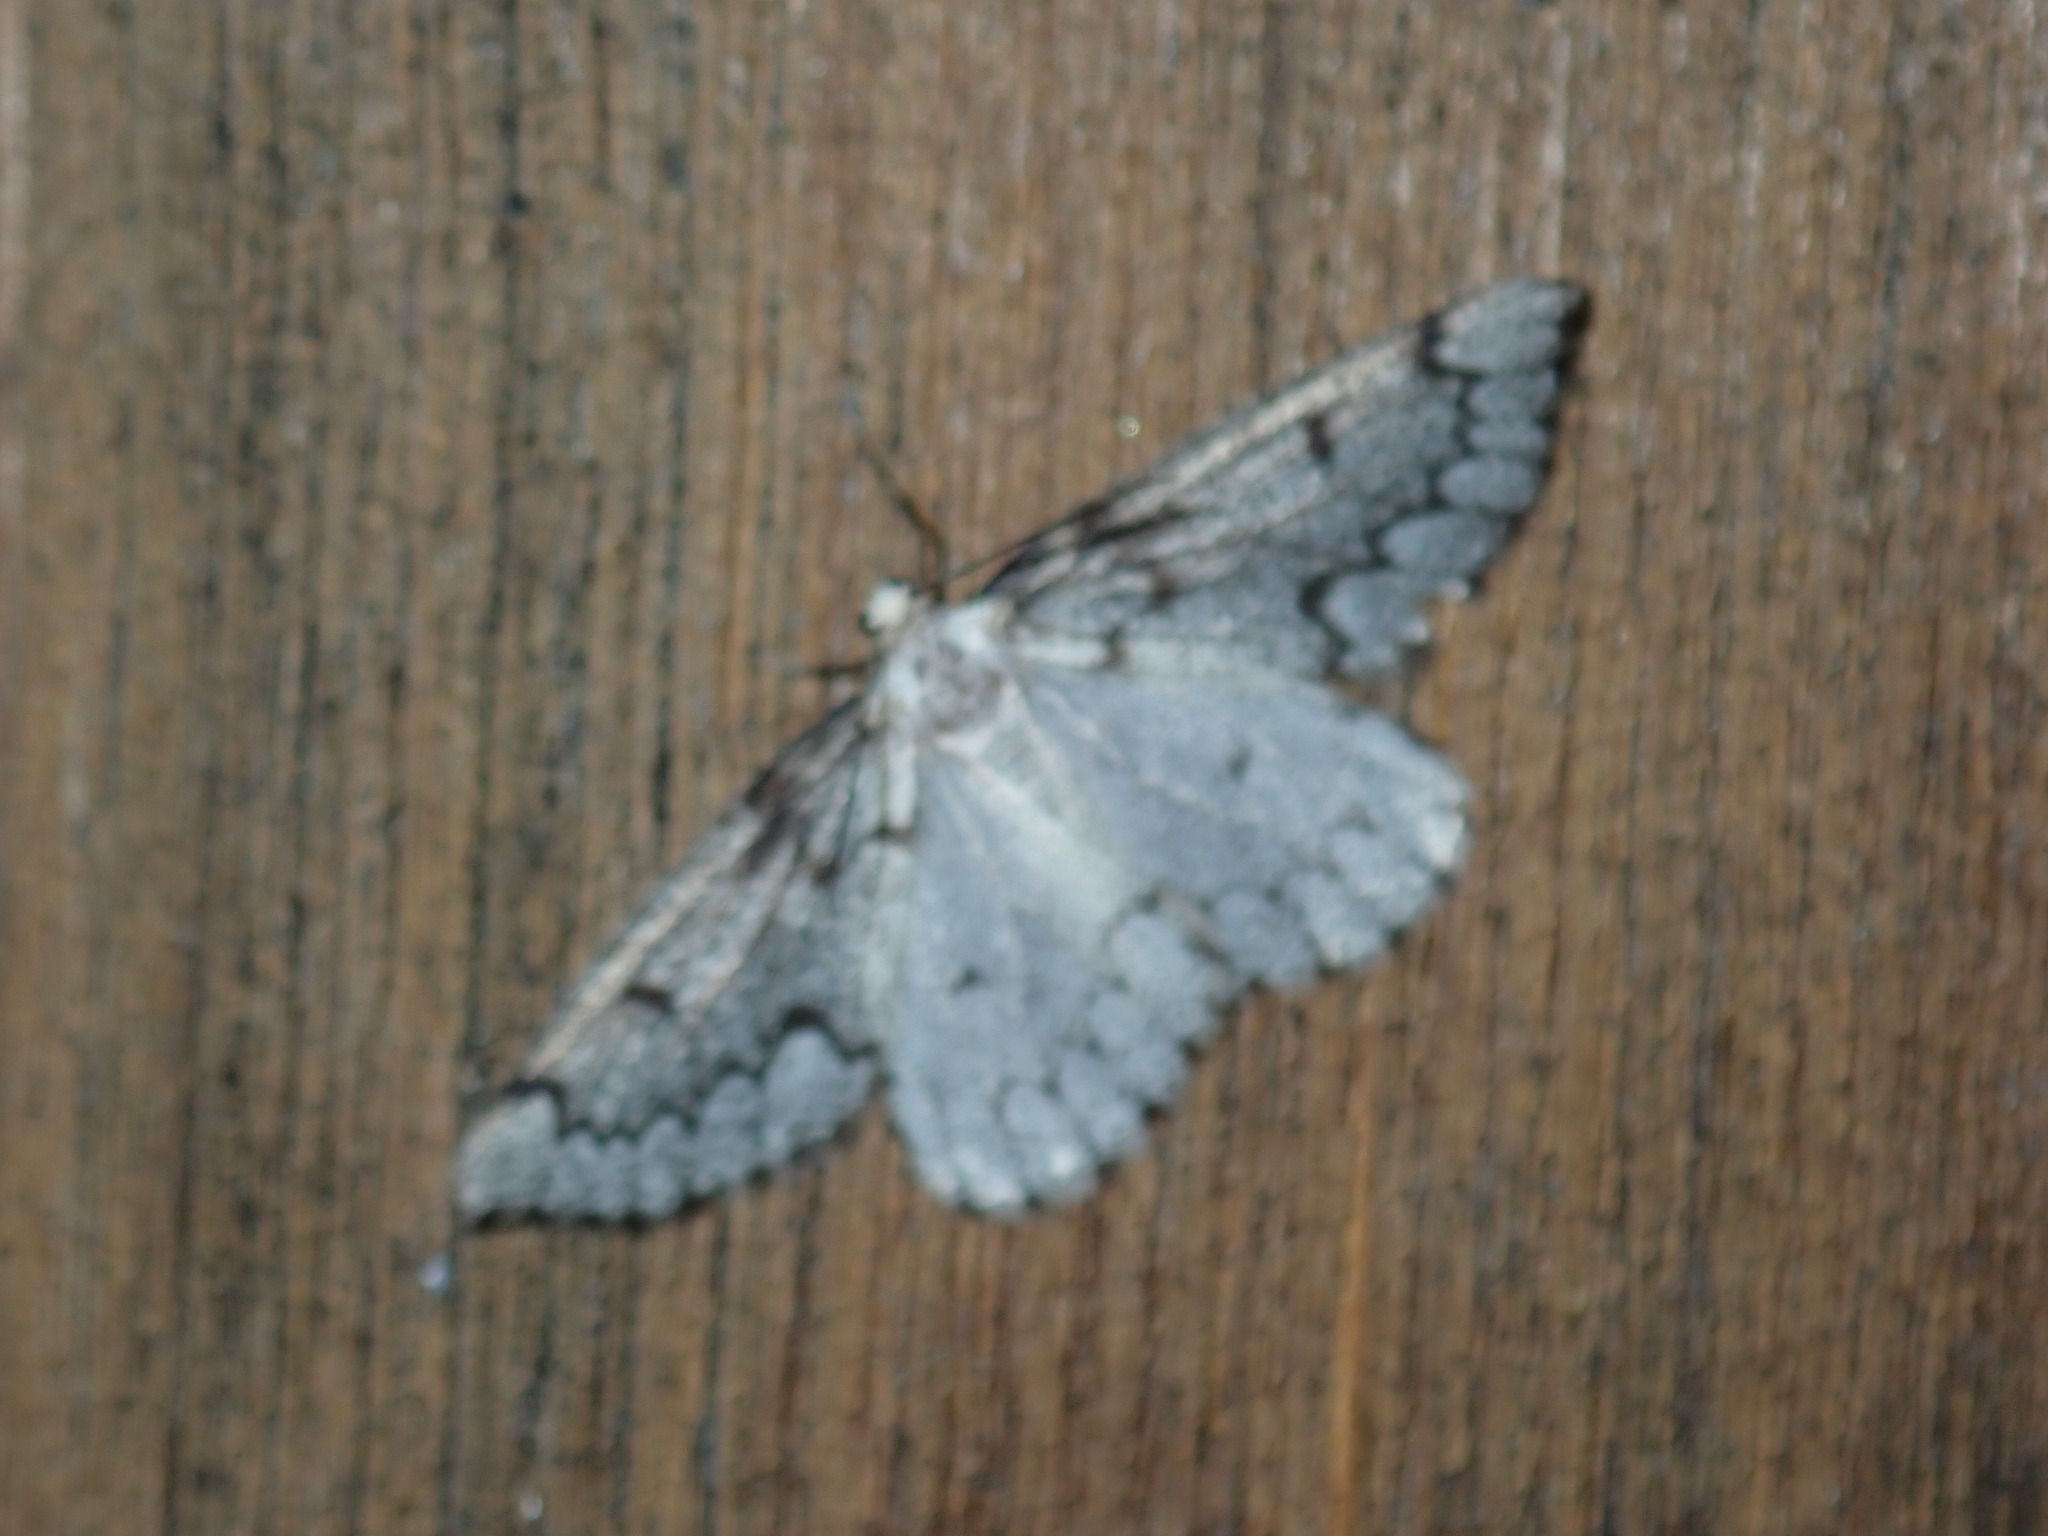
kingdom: Animalia
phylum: Arthropoda
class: Insecta
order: Lepidoptera
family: Geometridae
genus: Nepytia
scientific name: Nepytia canosaria
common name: False hemlock looper
